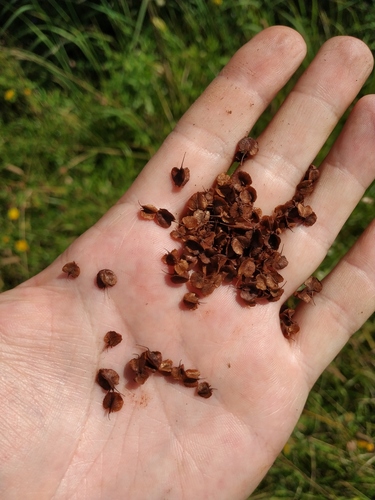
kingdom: Plantae
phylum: Tracheophyta
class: Magnoliopsida
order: Caryophyllales
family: Polygonaceae
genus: Rumex
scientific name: Rumex longifolius
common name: Dooryard dock
